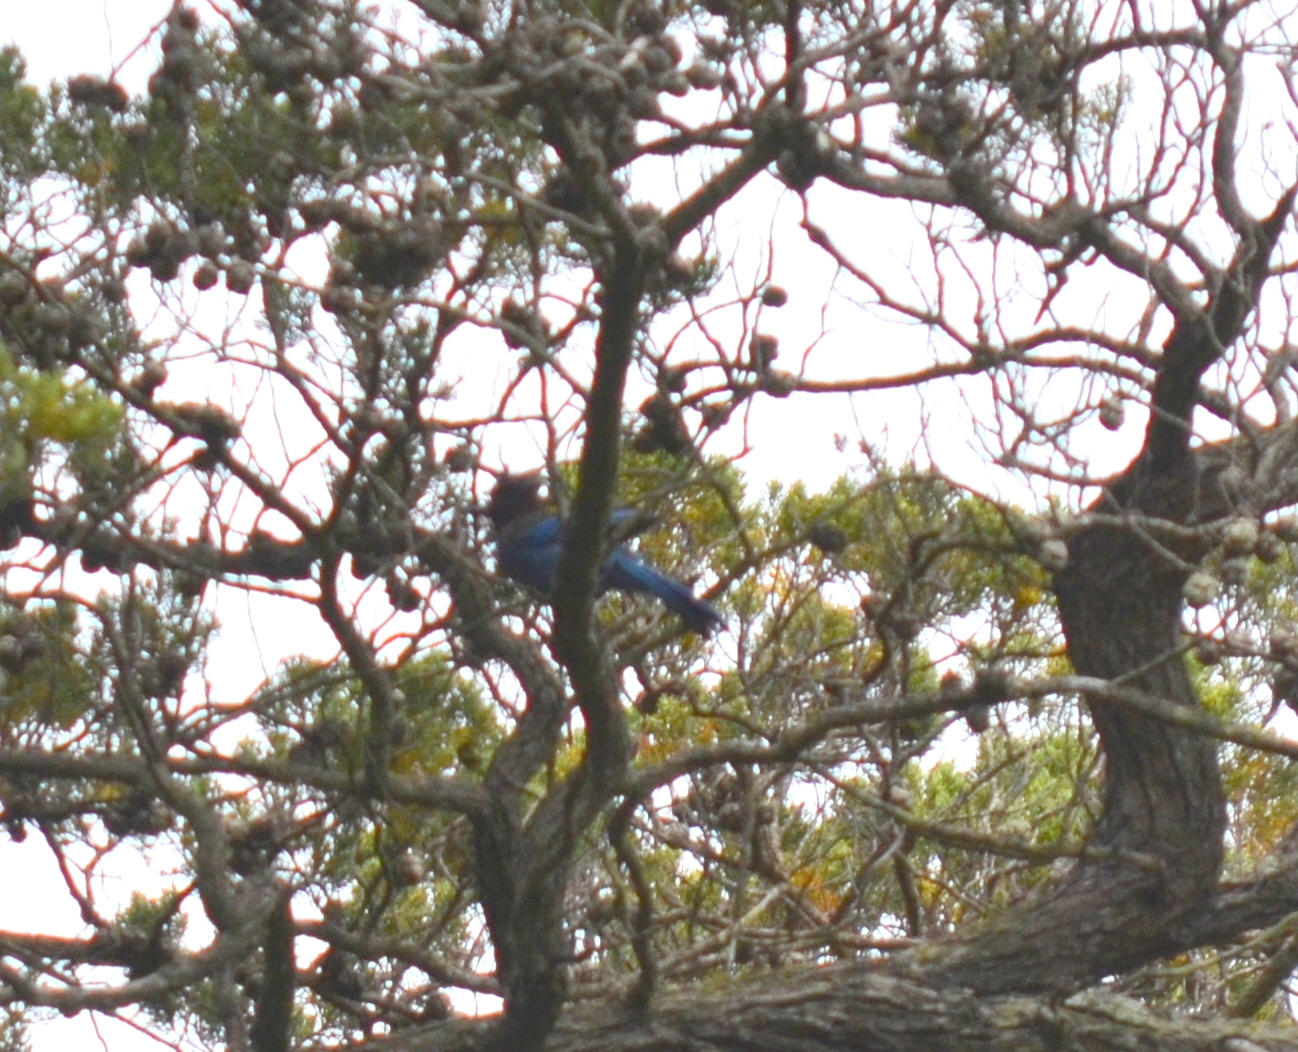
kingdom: Animalia
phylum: Chordata
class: Aves
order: Passeriformes
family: Corvidae
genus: Cyanocitta
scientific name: Cyanocitta stelleri
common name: Steller's jay
